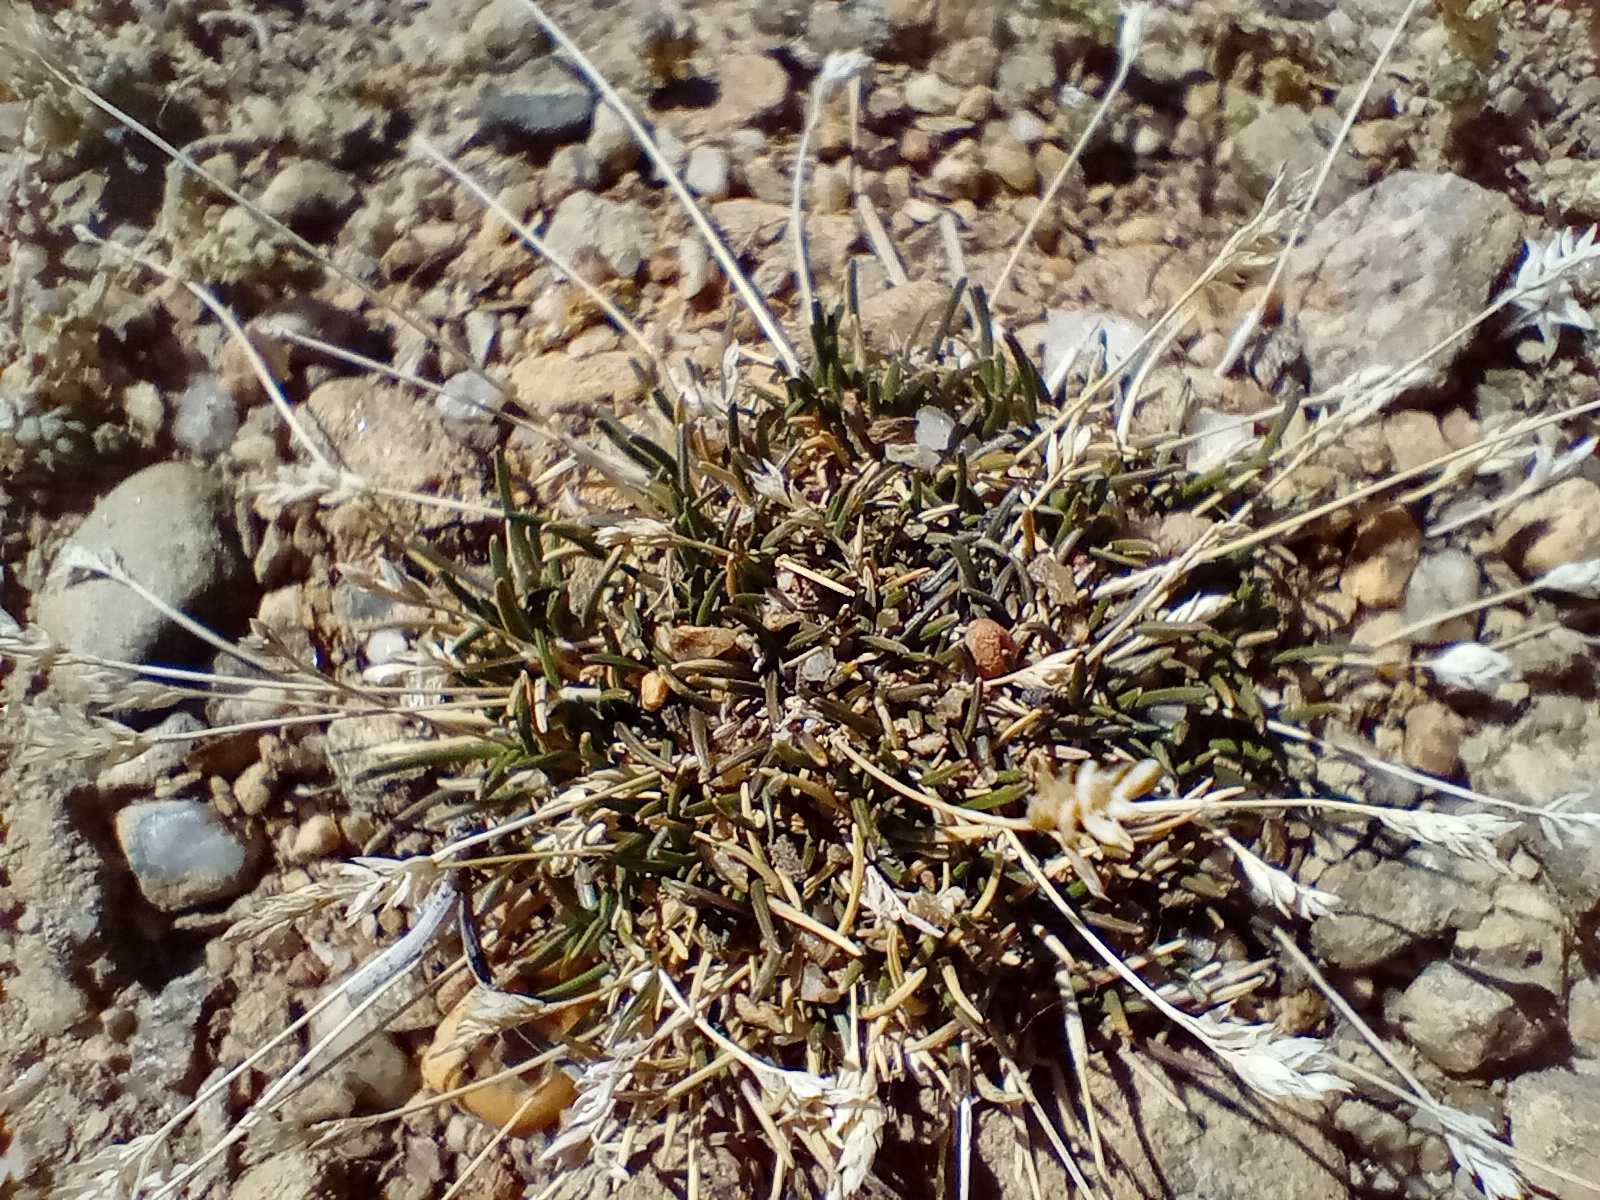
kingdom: Plantae
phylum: Tracheophyta
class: Liliopsida
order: Poales
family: Poaceae
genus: Poa
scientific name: Poa maniototo
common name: Desert poa
